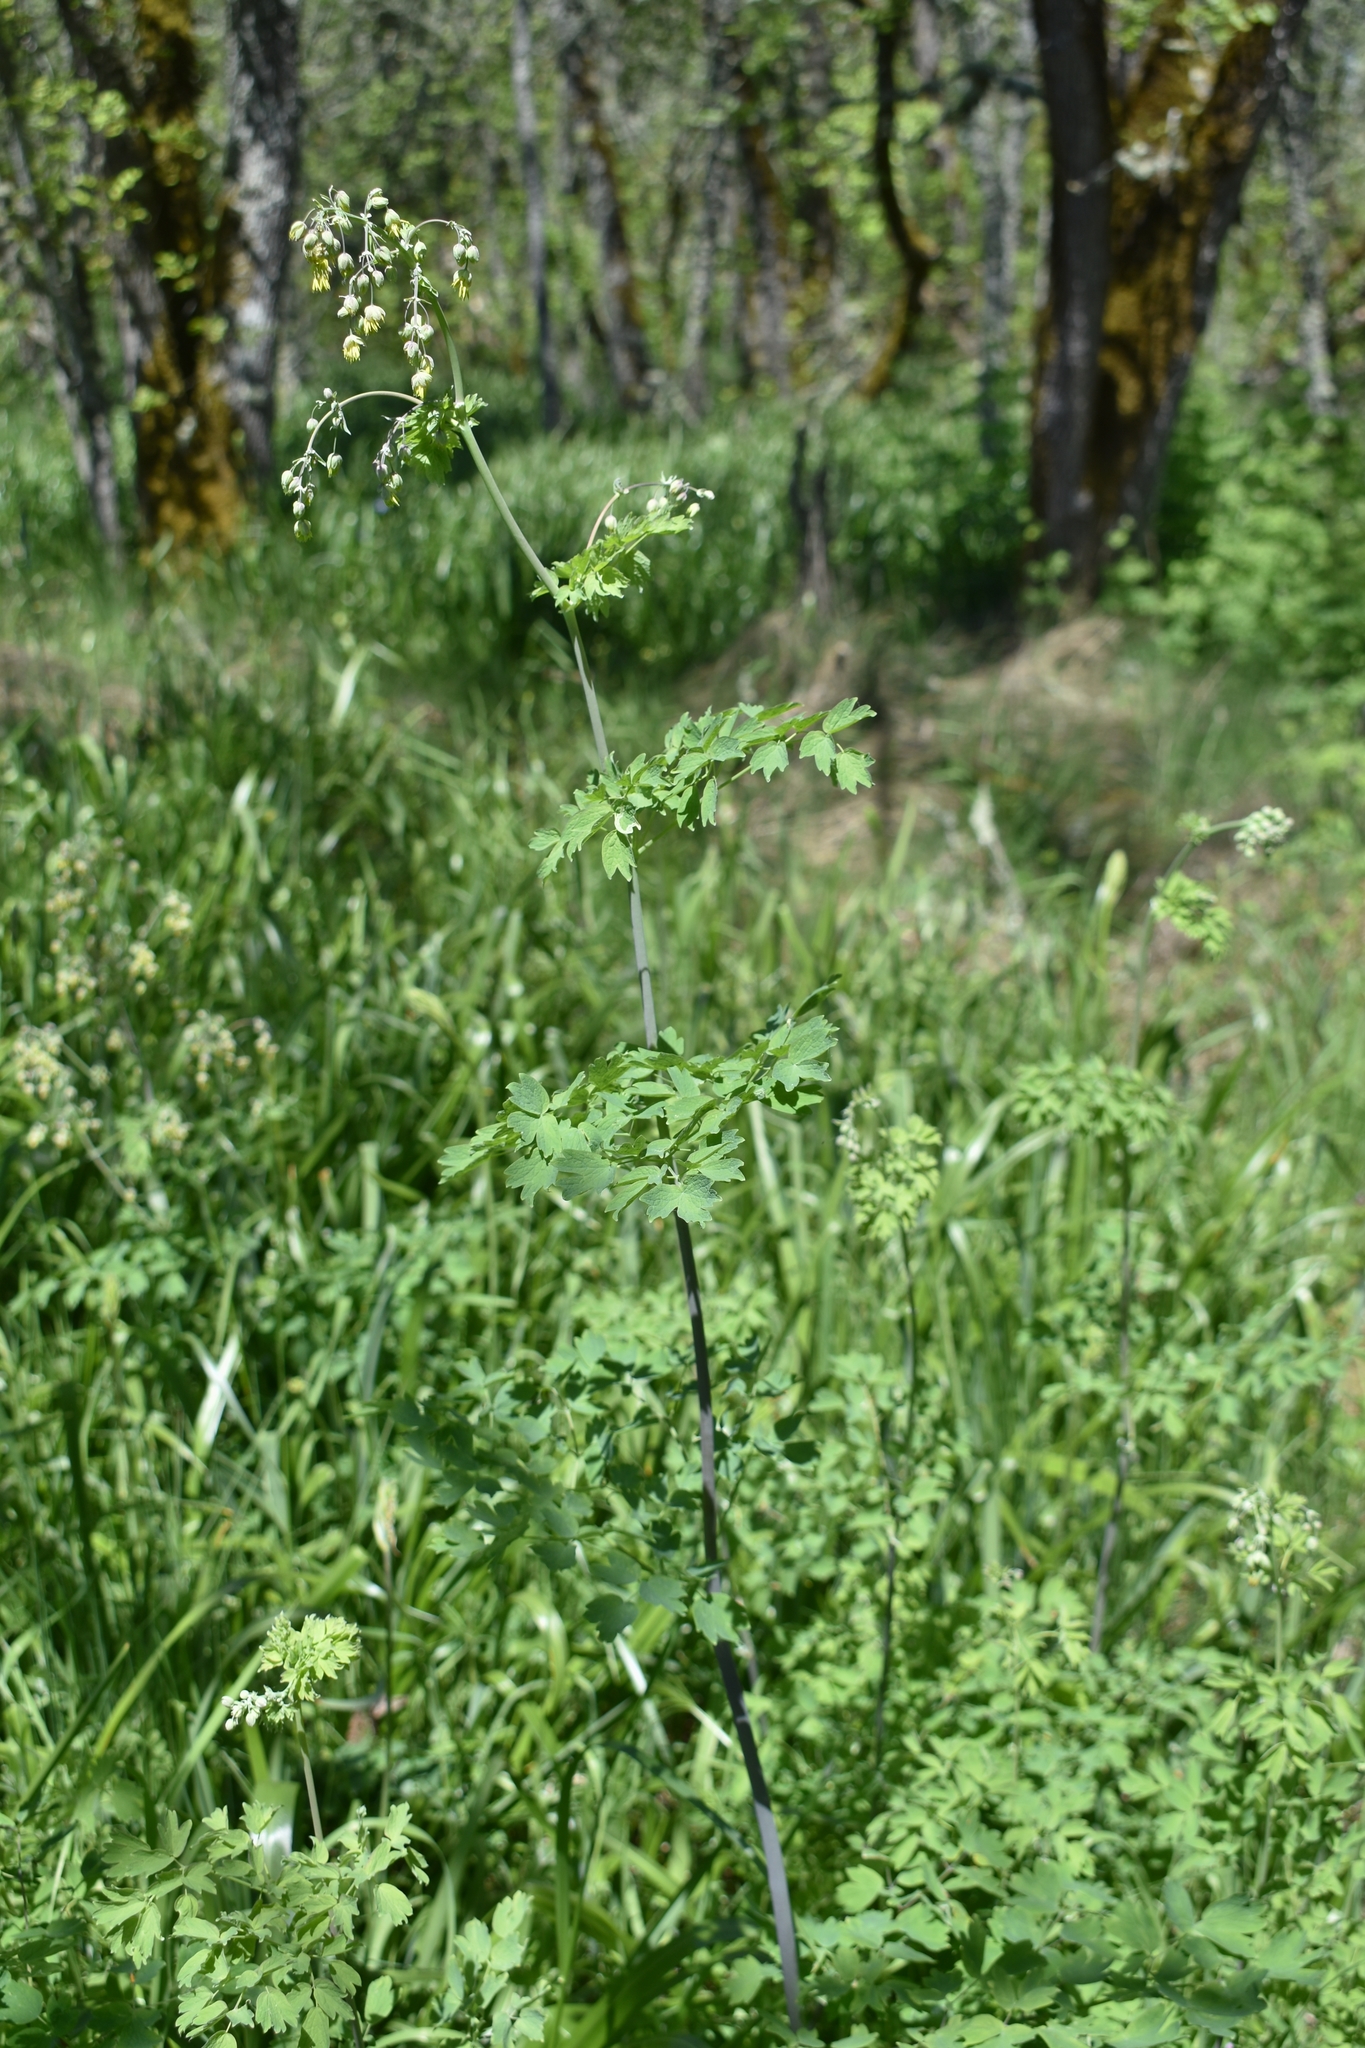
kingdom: Plantae
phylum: Tracheophyta
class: Magnoliopsida
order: Ranunculales
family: Ranunculaceae
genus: Thalictrum
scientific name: Thalictrum fendleri
